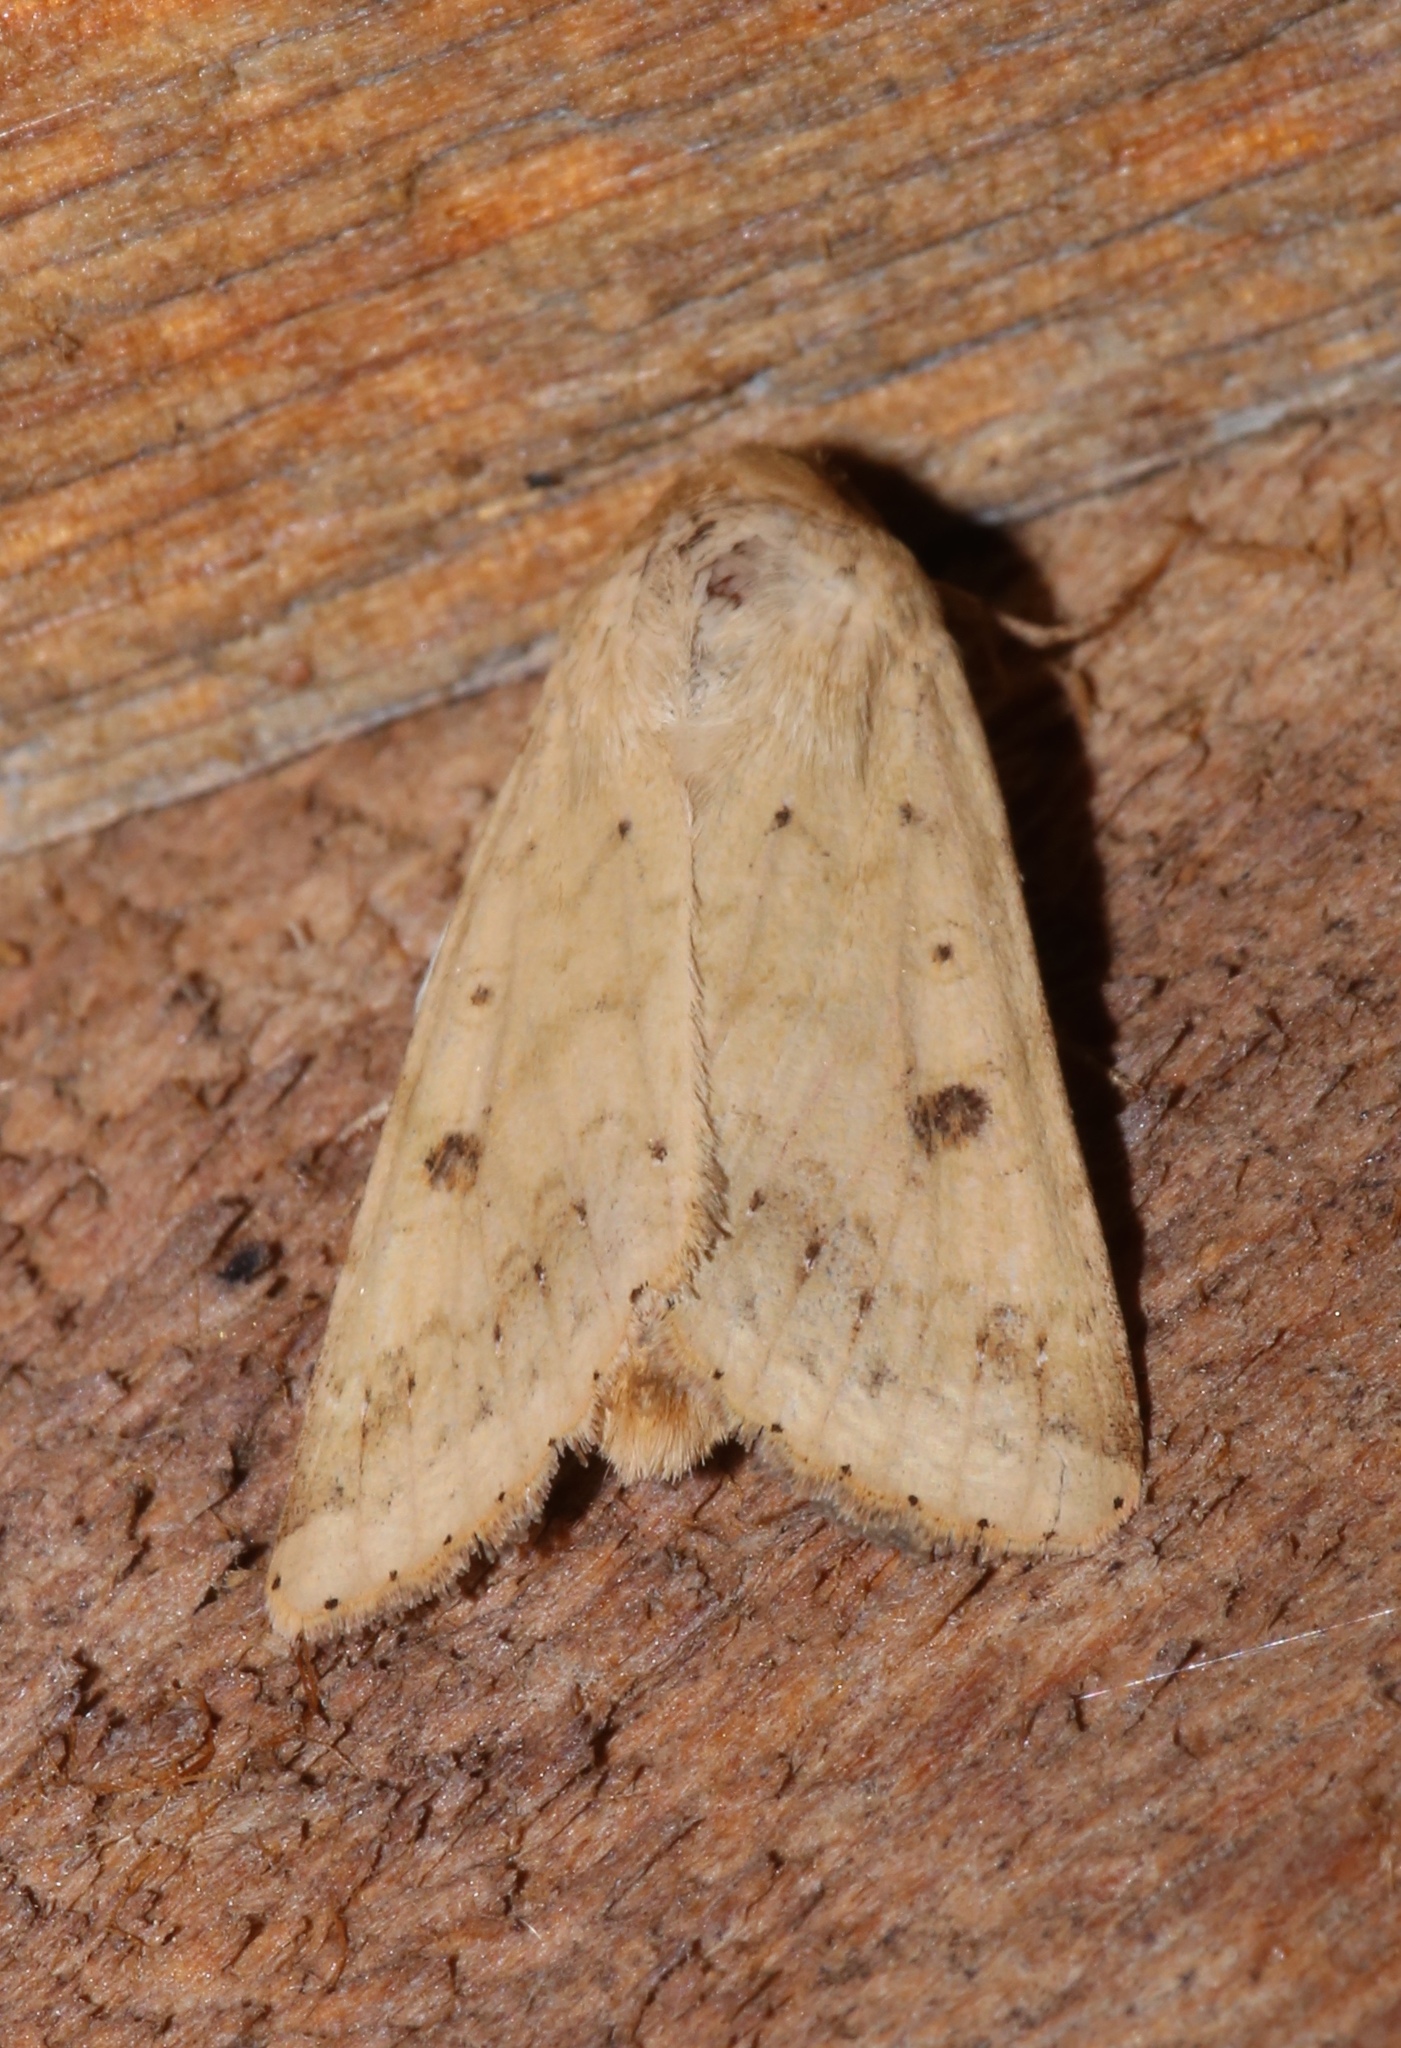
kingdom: Animalia
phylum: Arthropoda
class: Insecta
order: Lepidoptera
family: Noctuidae
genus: Helicoverpa
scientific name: Helicoverpa zea
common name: Bollworm
